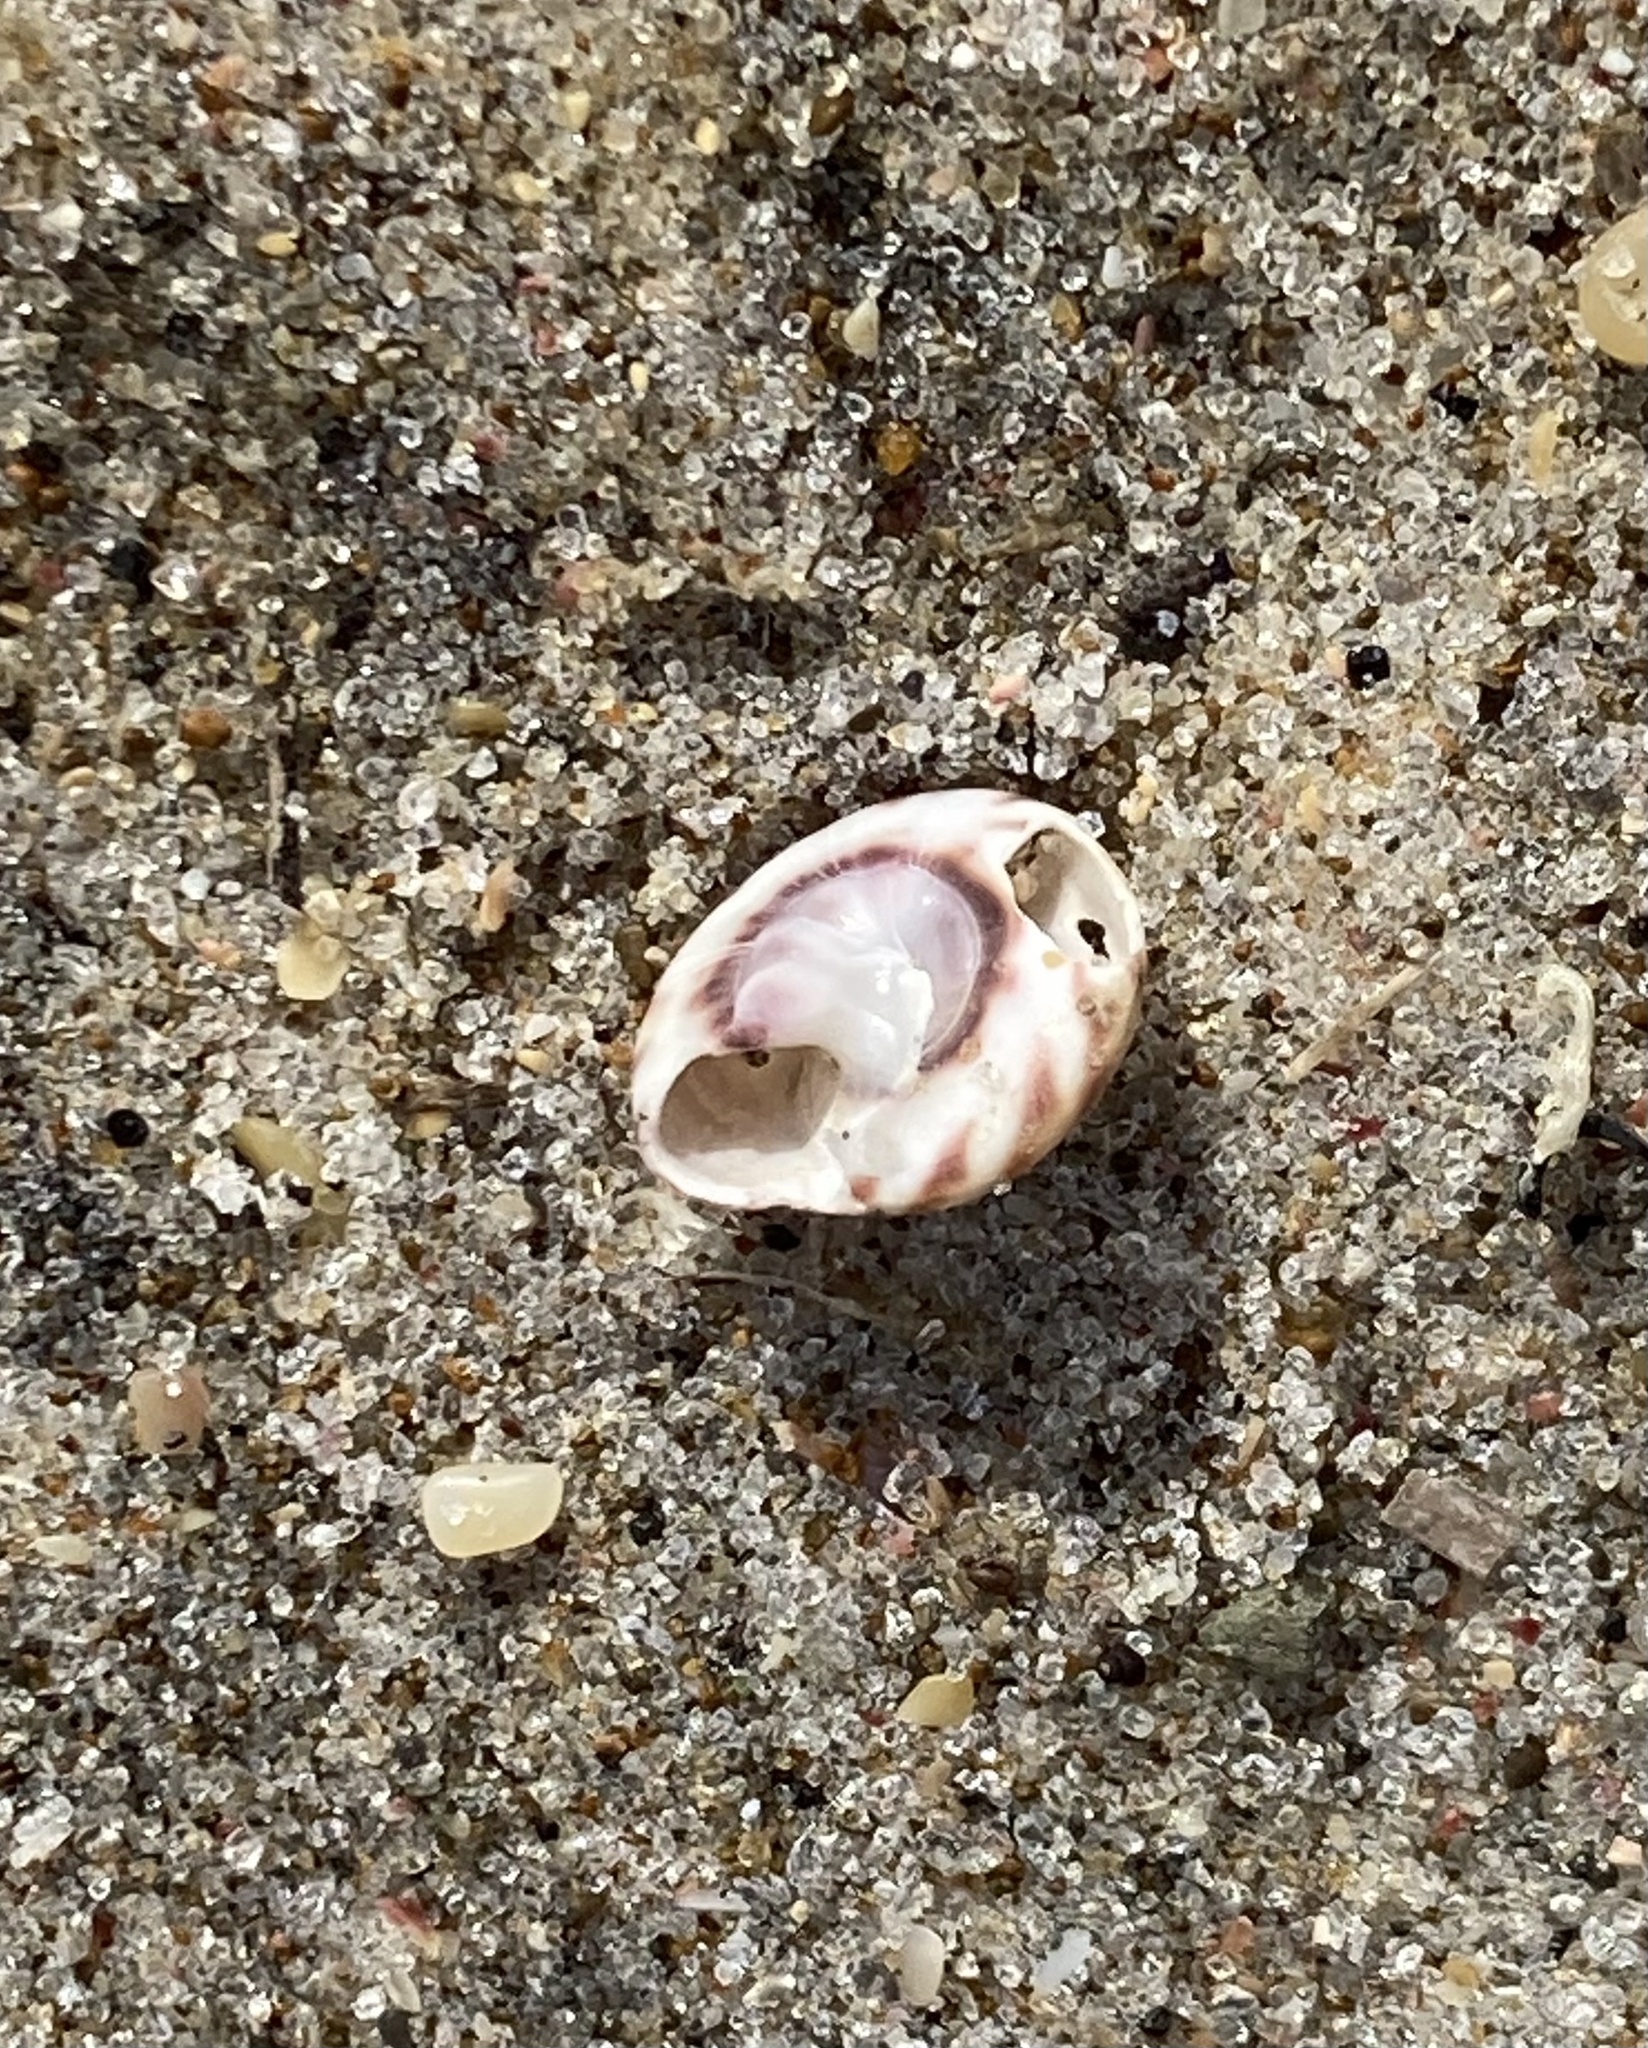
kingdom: Animalia
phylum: Mollusca
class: Gastropoda
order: Trochida
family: Trochidae
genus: Zethalia
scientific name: Zethalia zelandica
